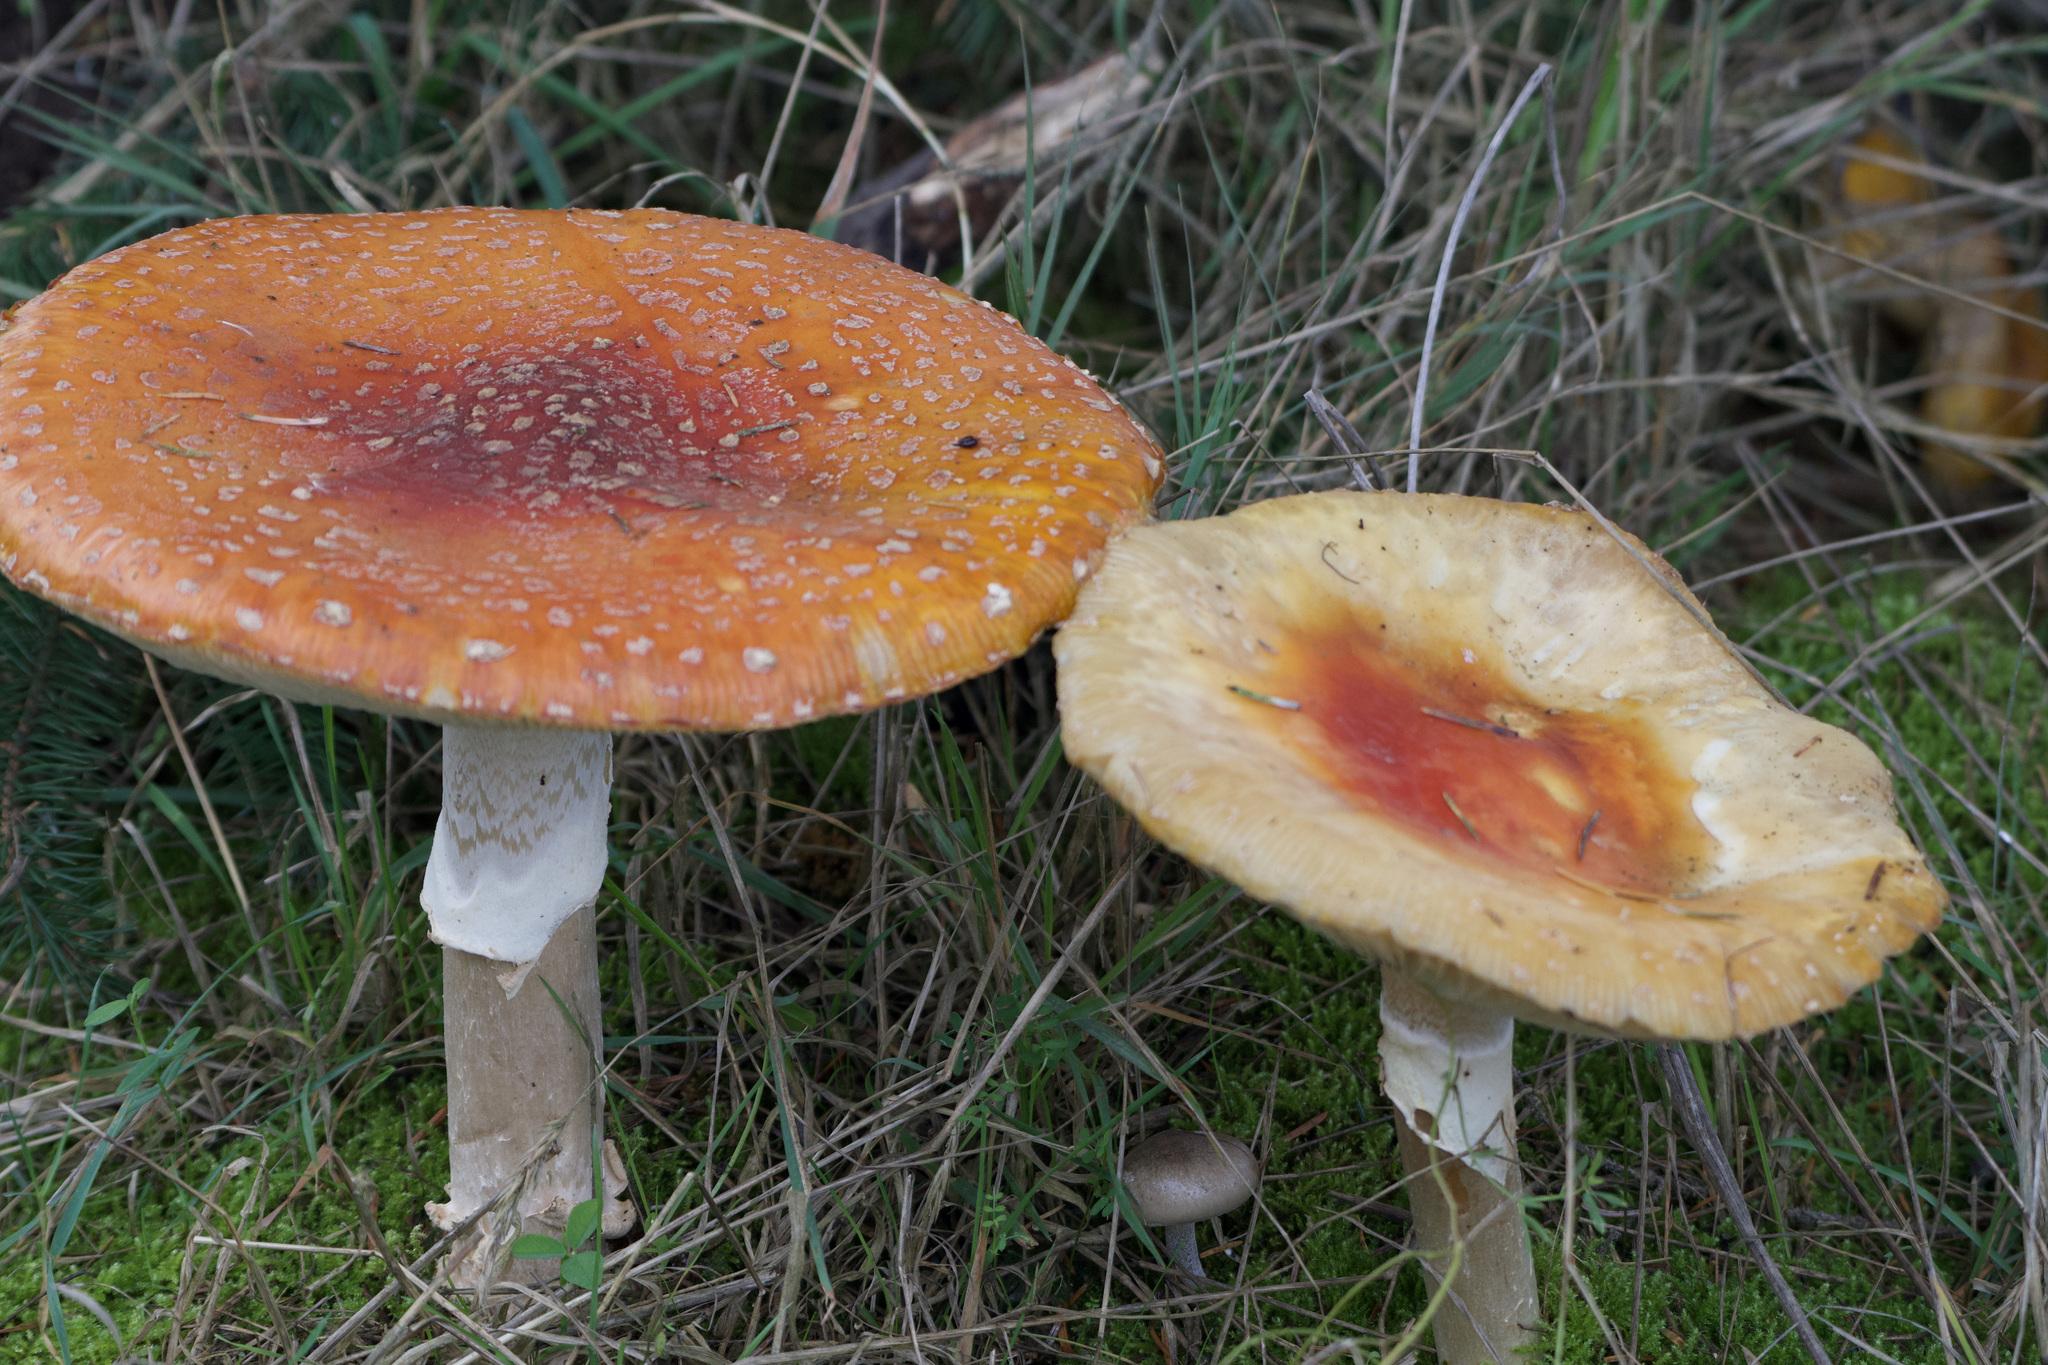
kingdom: Fungi
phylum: Basidiomycota
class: Agaricomycetes
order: Agaricales
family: Amanitaceae
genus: Amanita
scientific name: Amanita muscaria
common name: Fly agaric
